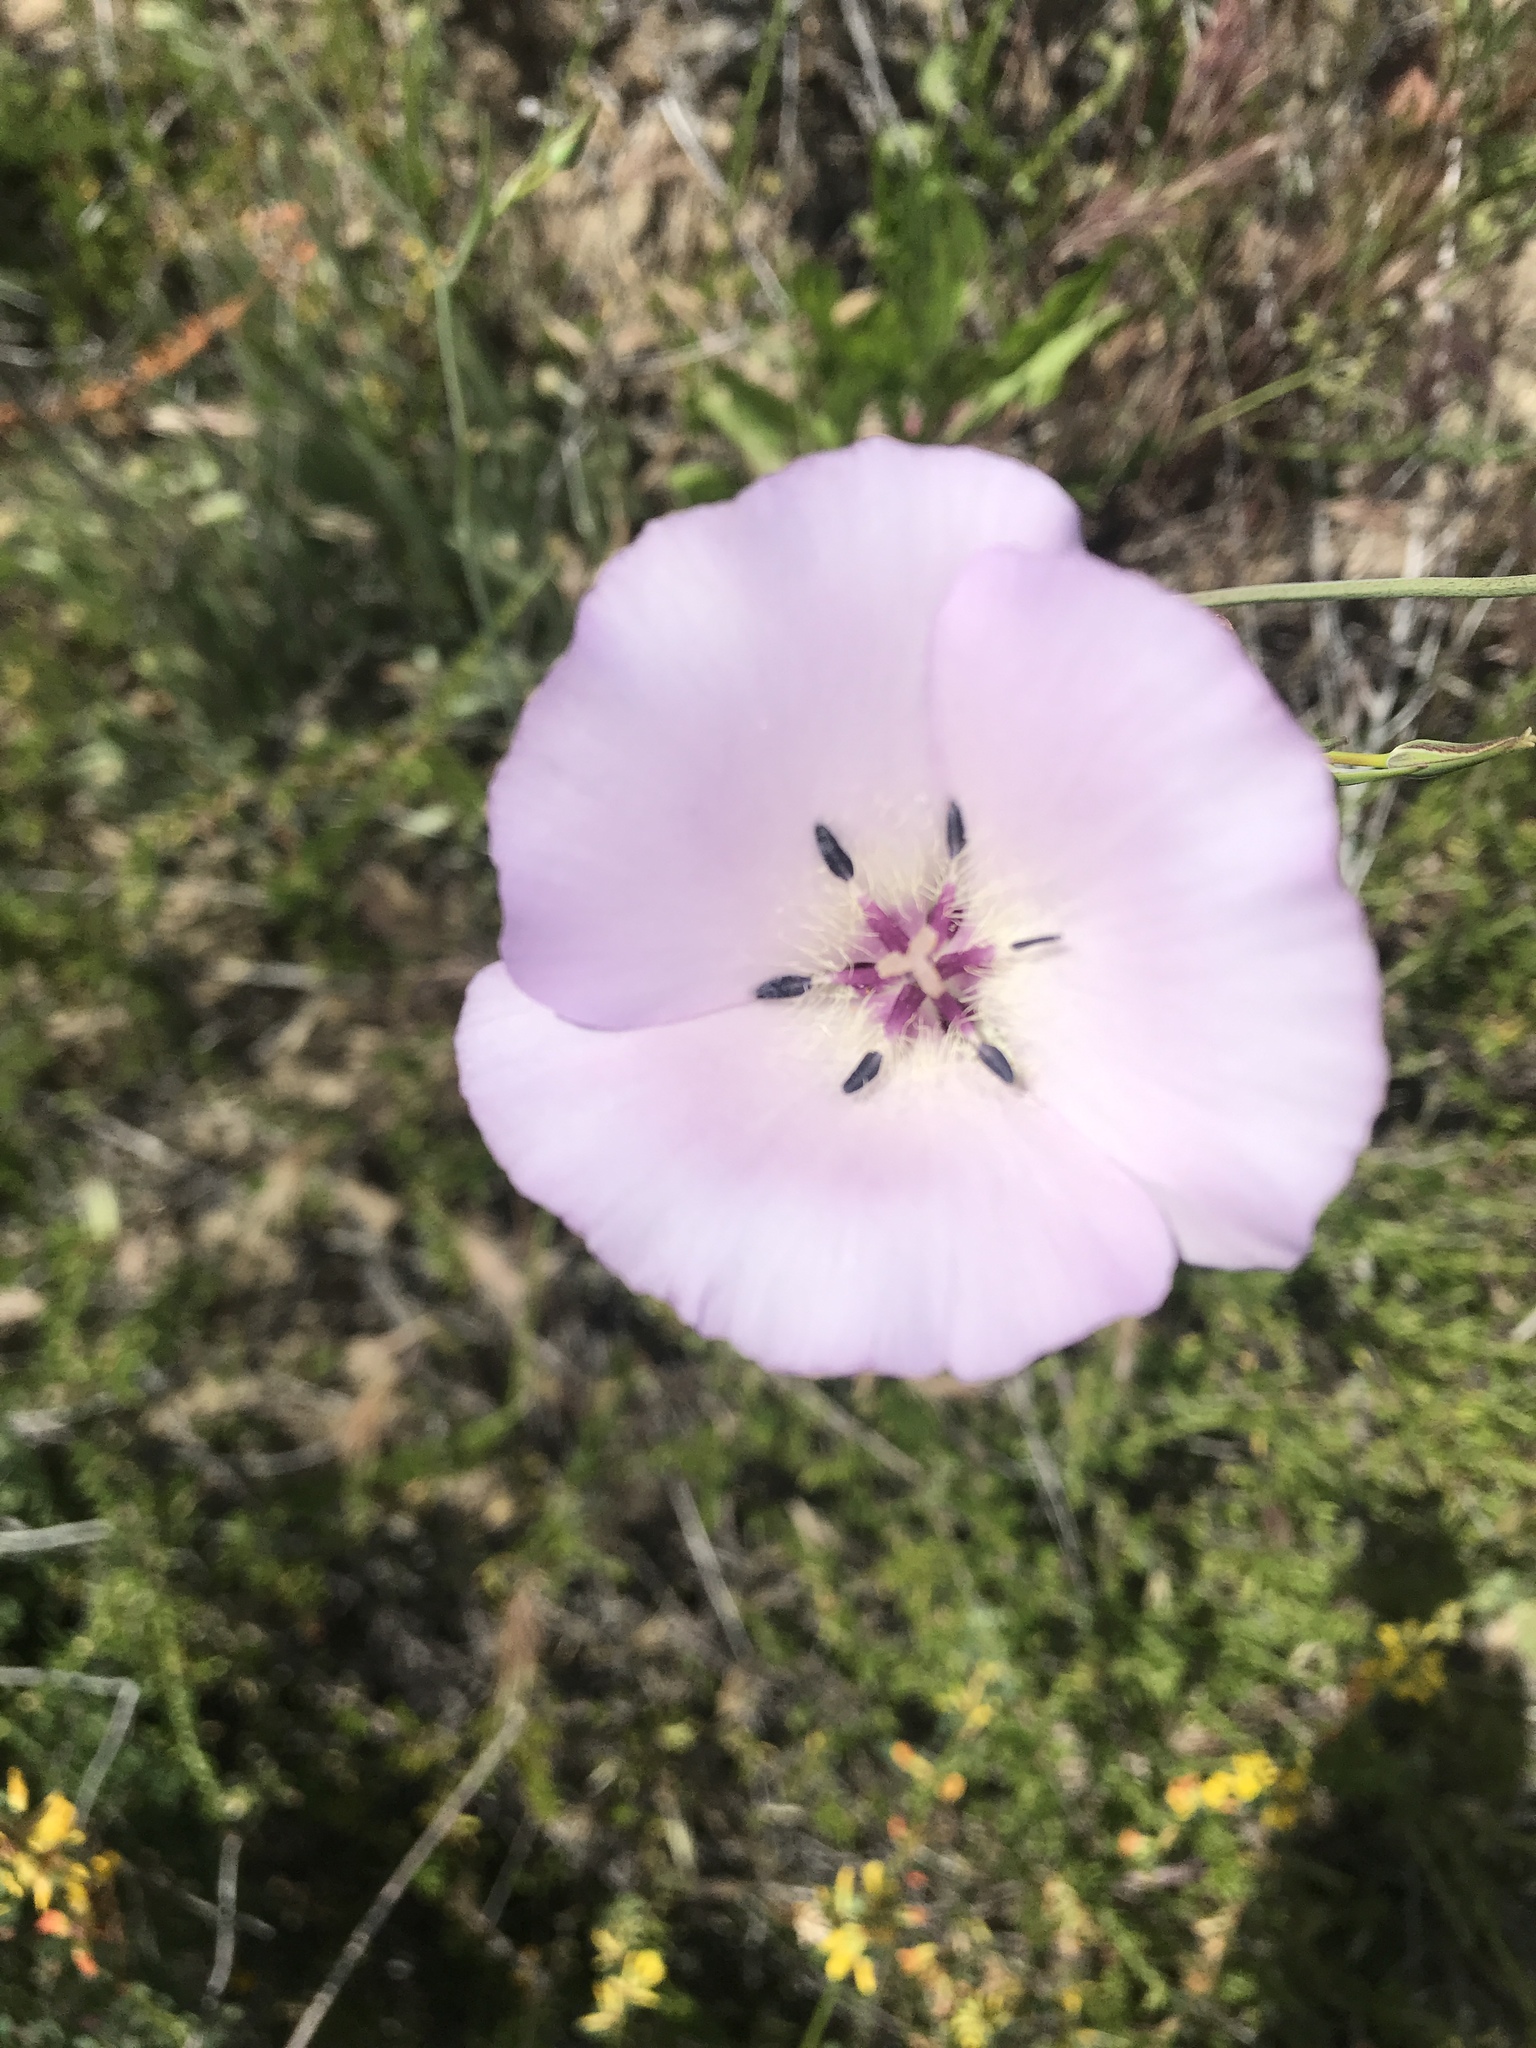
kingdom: Plantae
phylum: Tracheophyta
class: Liliopsida
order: Liliales
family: Liliaceae
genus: Calochortus
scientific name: Calochortus splendens
